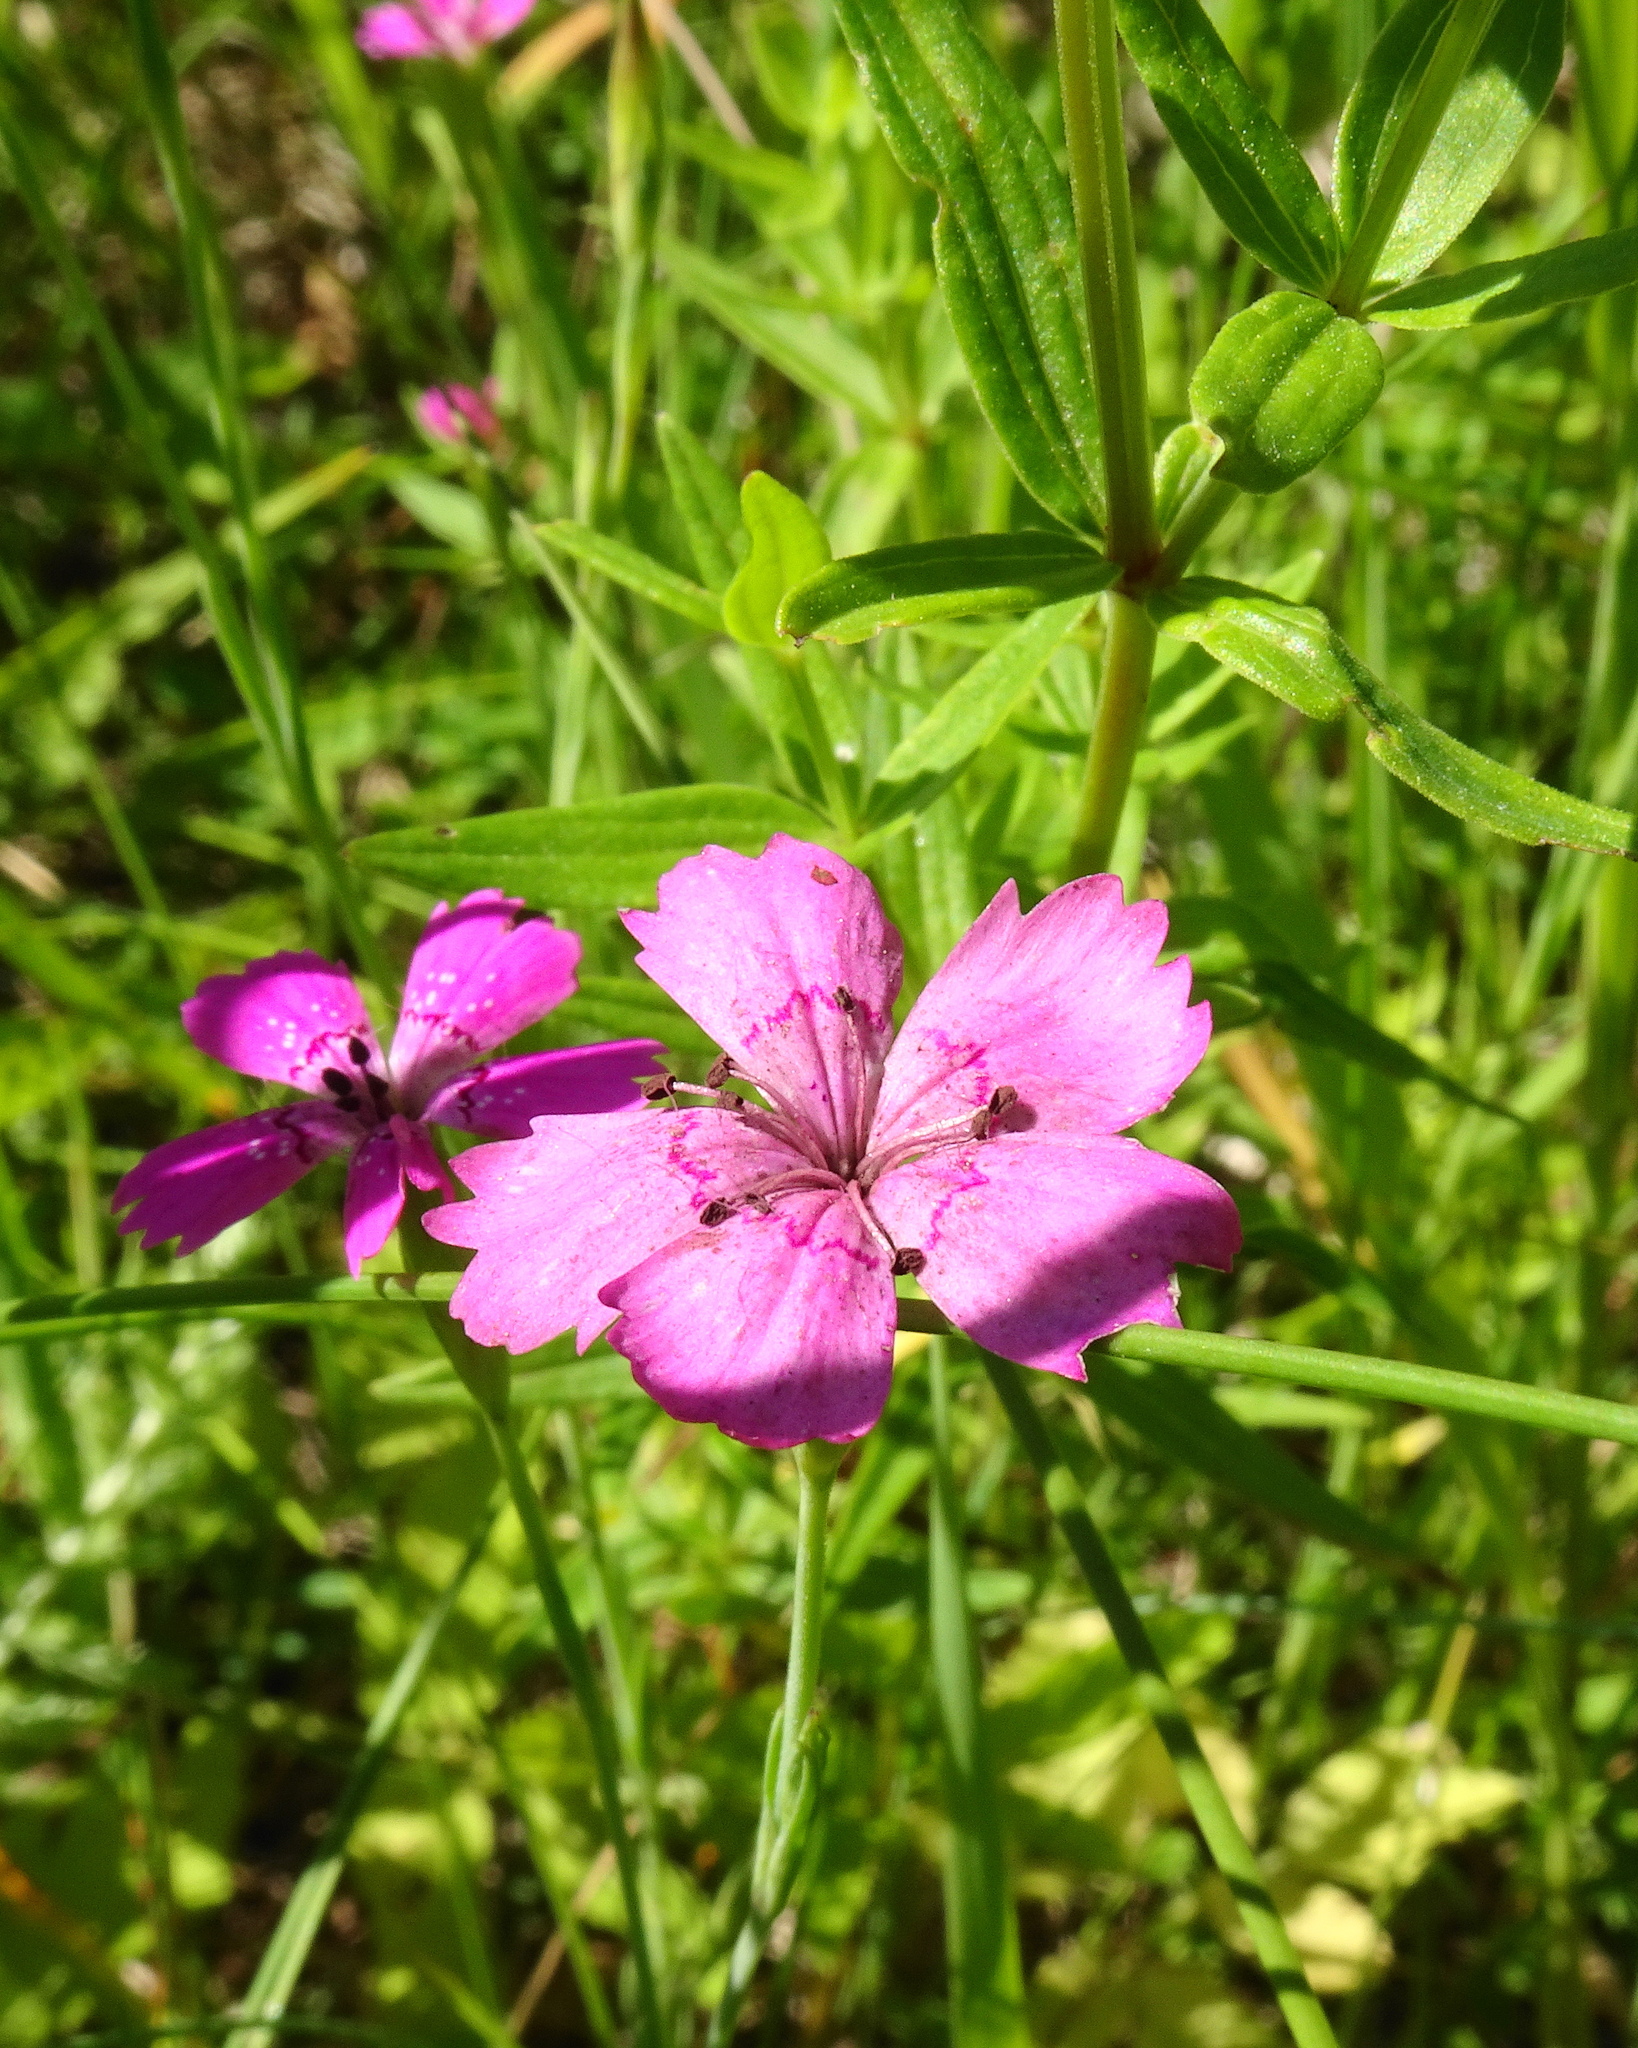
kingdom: Plantae
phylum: Tracheophyta
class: Magnoliopsida
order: Caryophyllales
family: Caryophyllaceae
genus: Dianthus
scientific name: Dianthus deltoides
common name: Maiden pink
